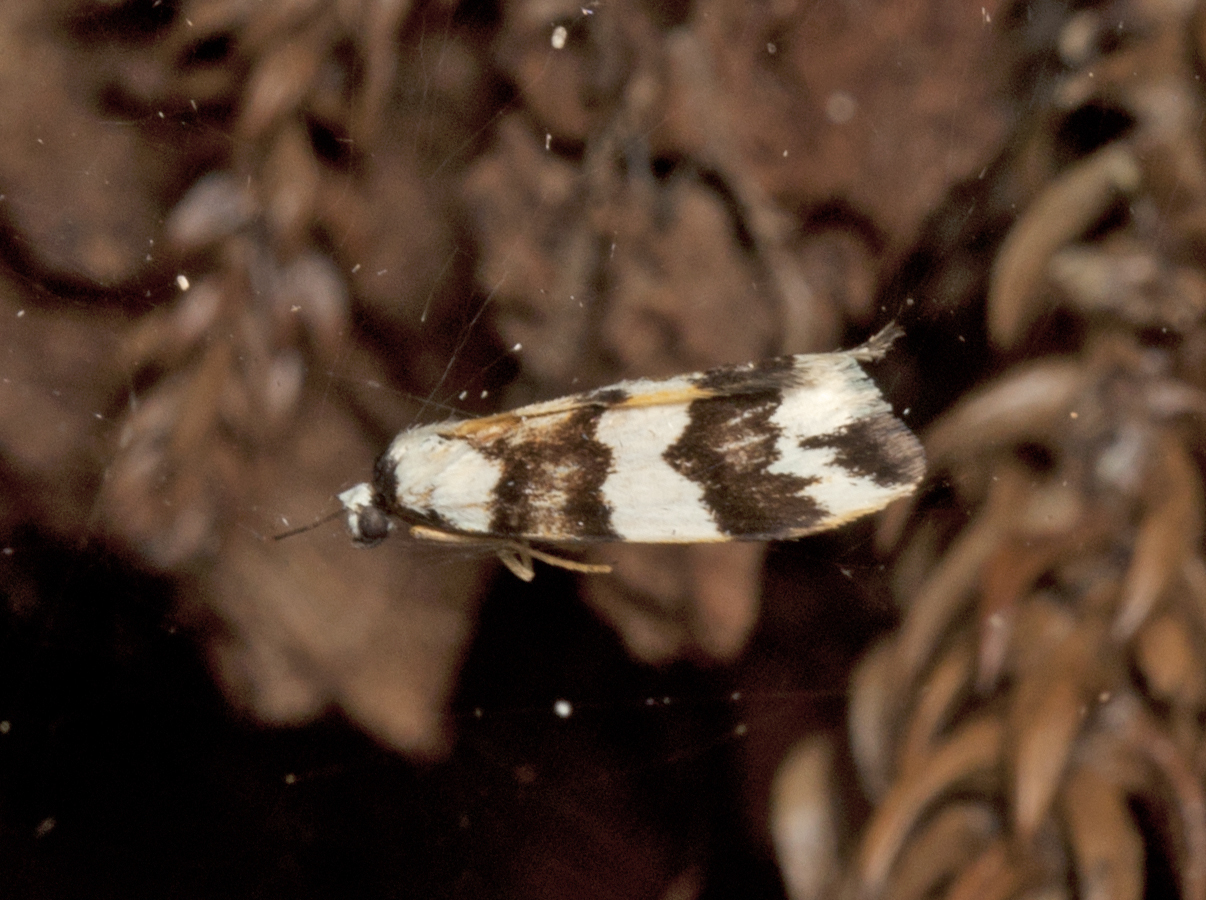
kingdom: Animalia
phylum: Arthropoda
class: Insecta
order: Lepidoptera
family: Erebidae
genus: Termessa
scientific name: Termessa gratiosa
